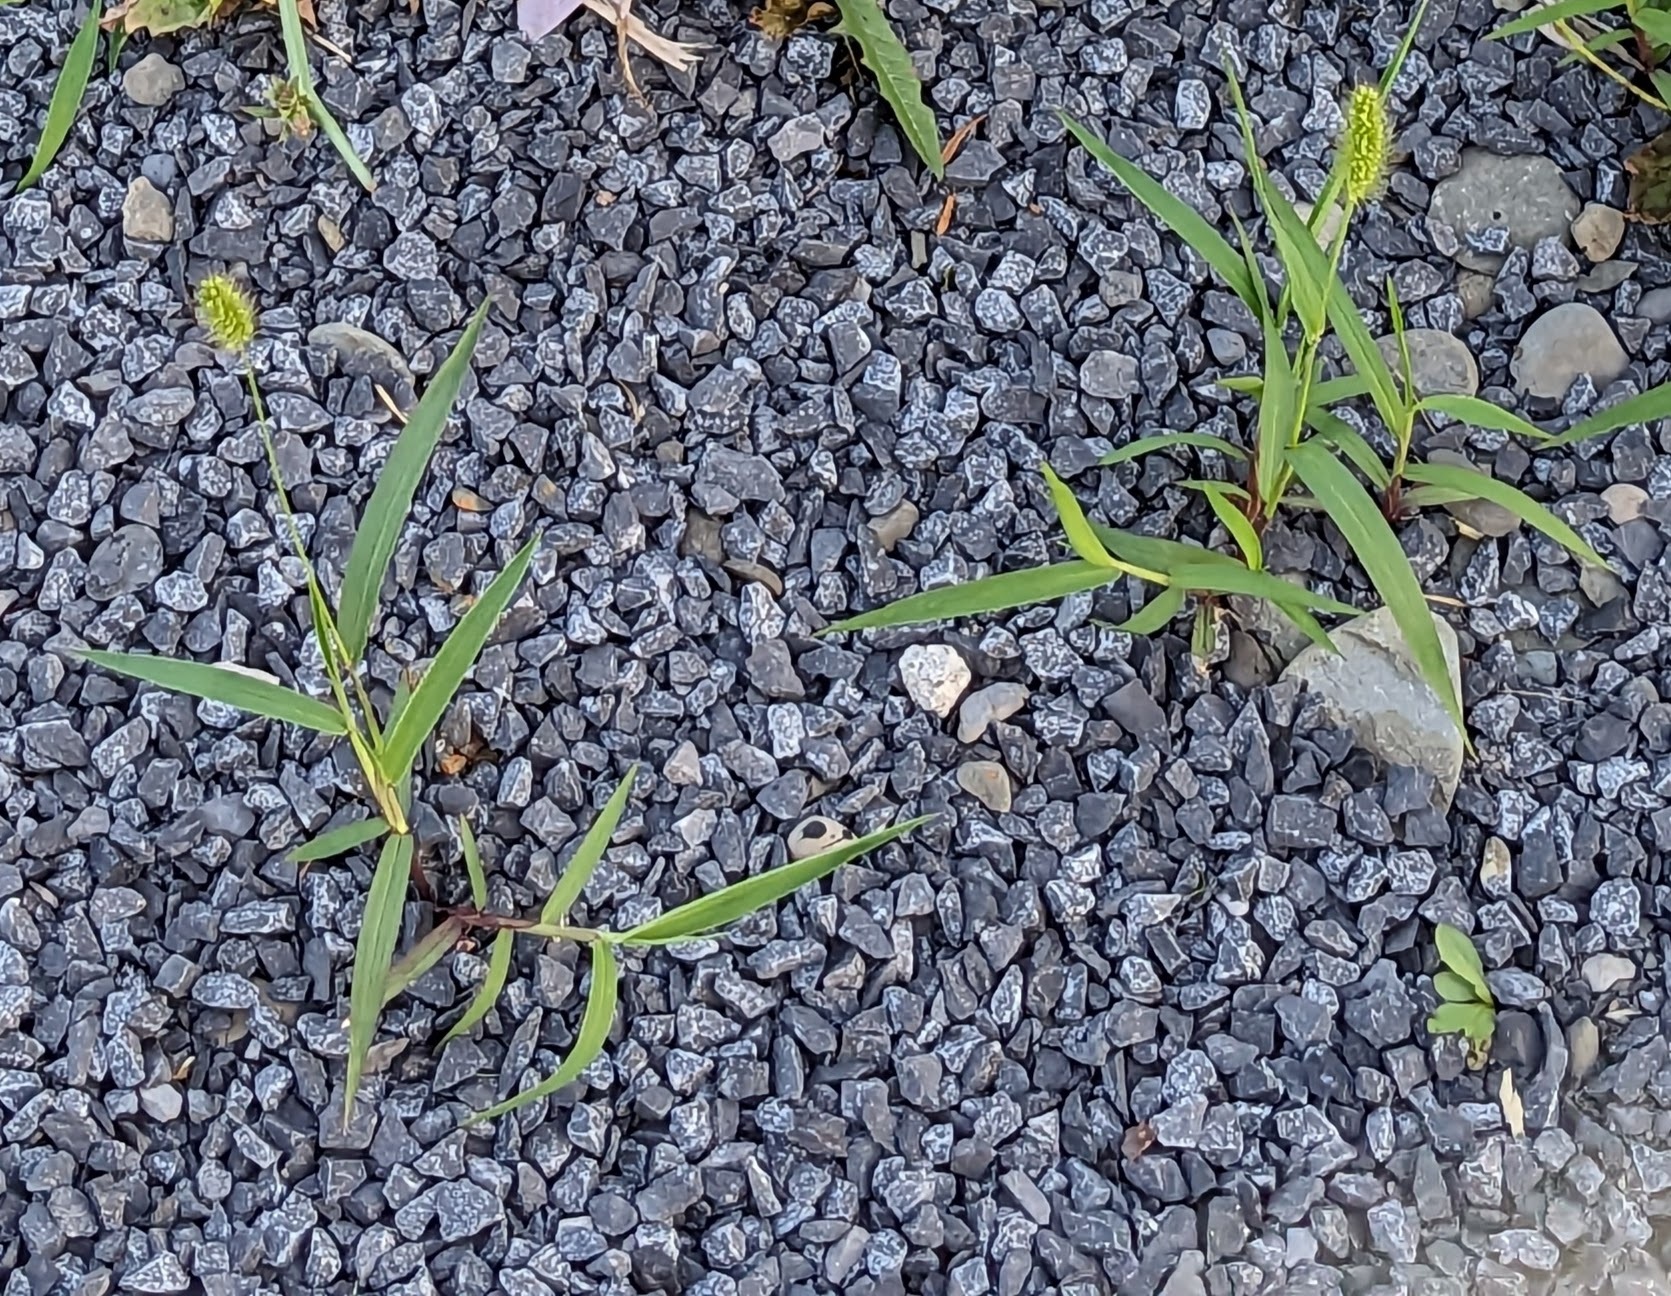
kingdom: Plantae
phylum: Tracheophyta
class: Liliopsida
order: Poales
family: Poaceae
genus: Setaria
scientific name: Setaria viridis
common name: Green bristlegrass
